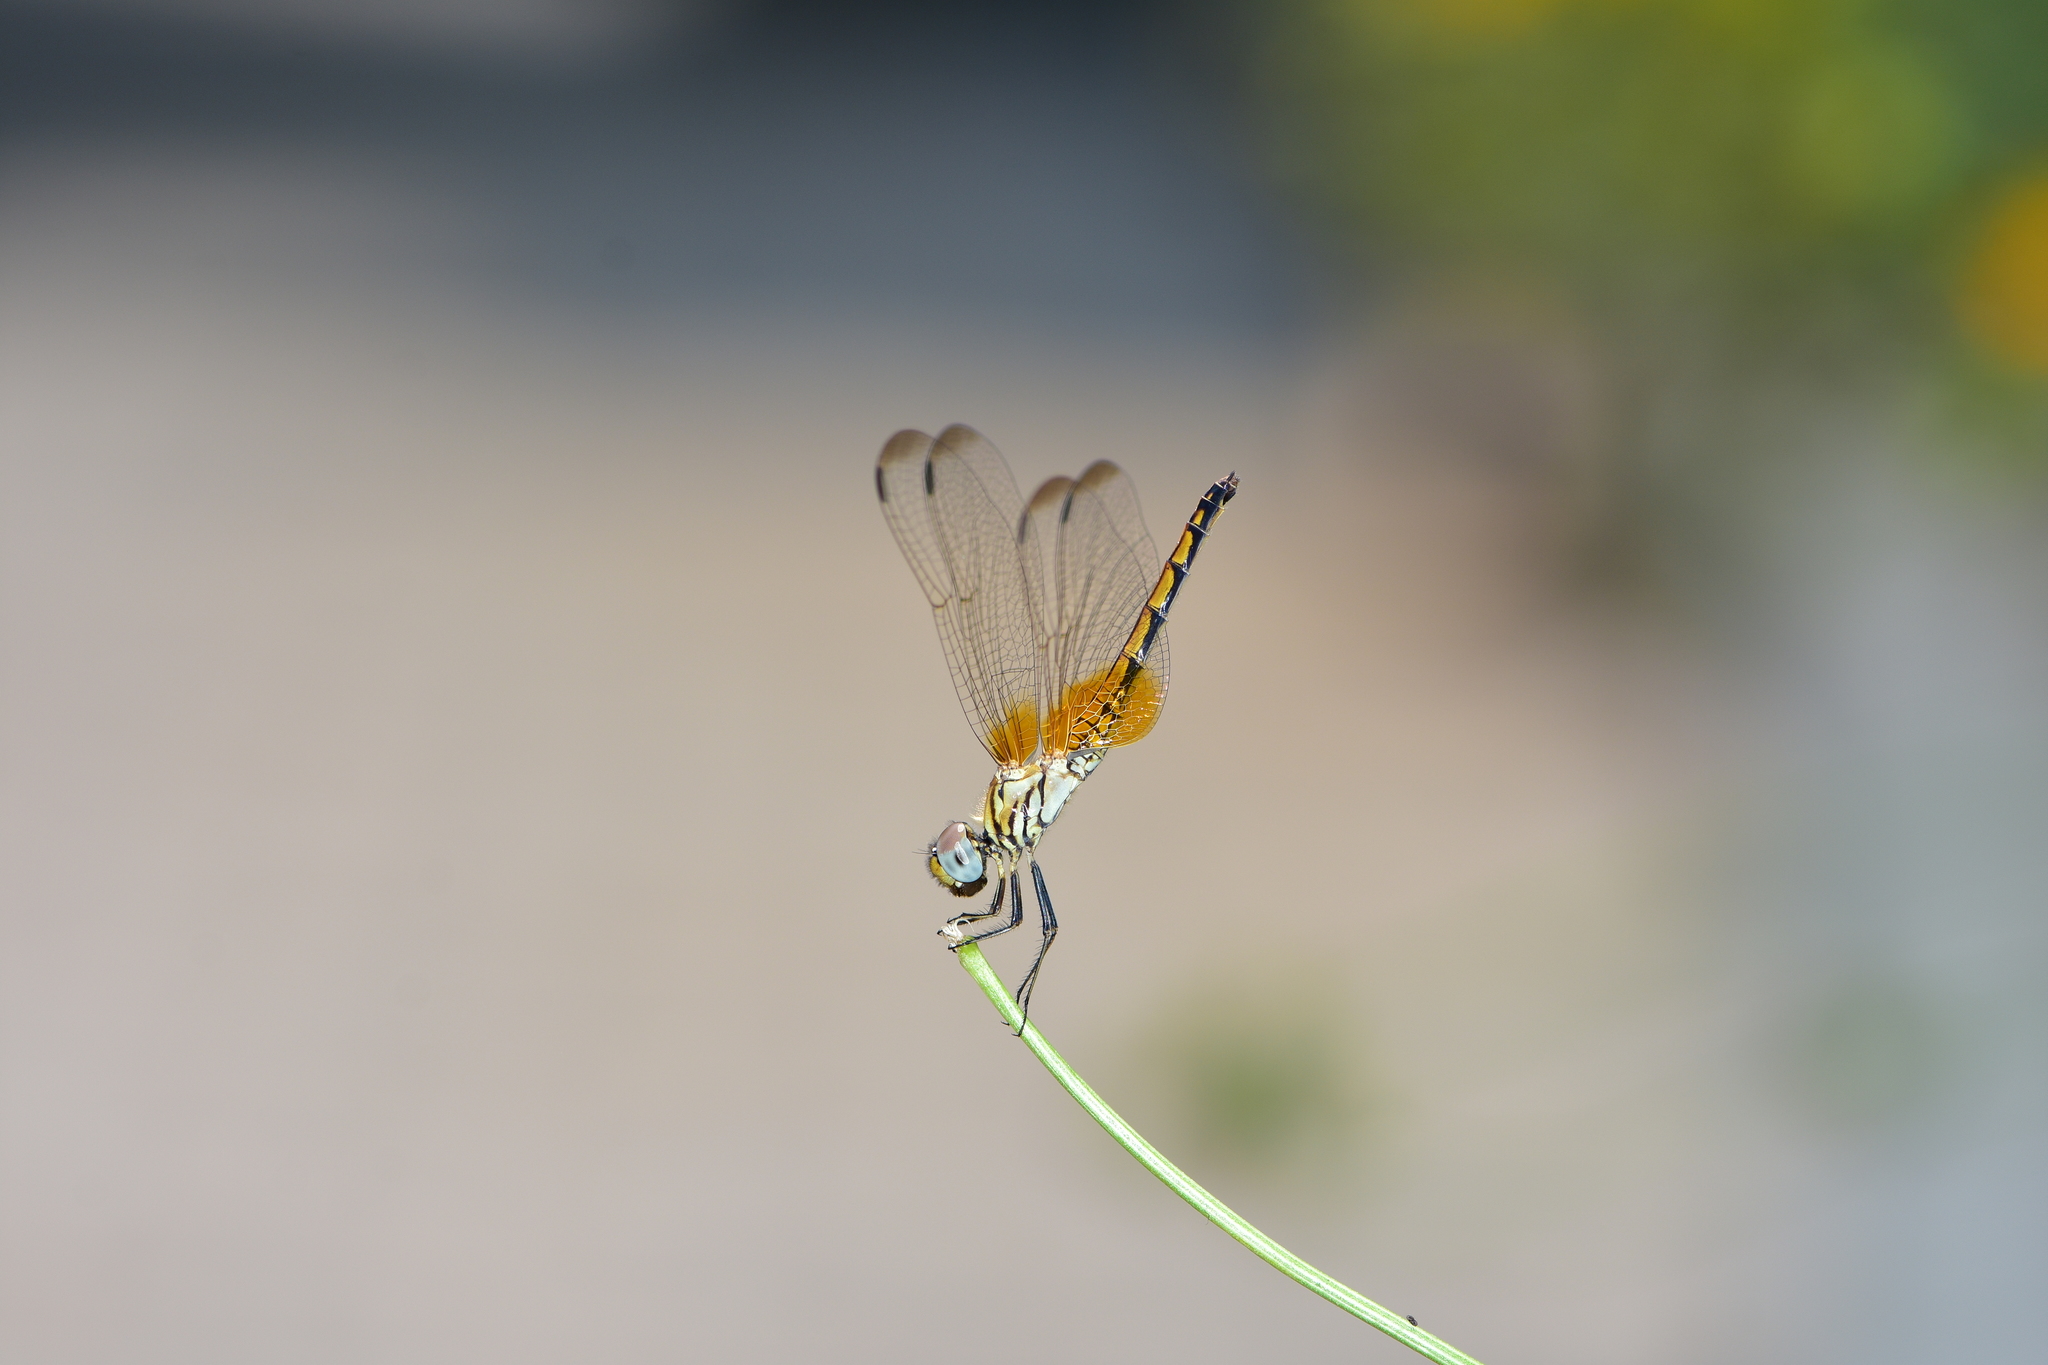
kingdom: Animalia
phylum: Arthropoda
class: Insecta
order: Odonata
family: Libellulidae
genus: Trithemis
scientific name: Trithemis aurora
